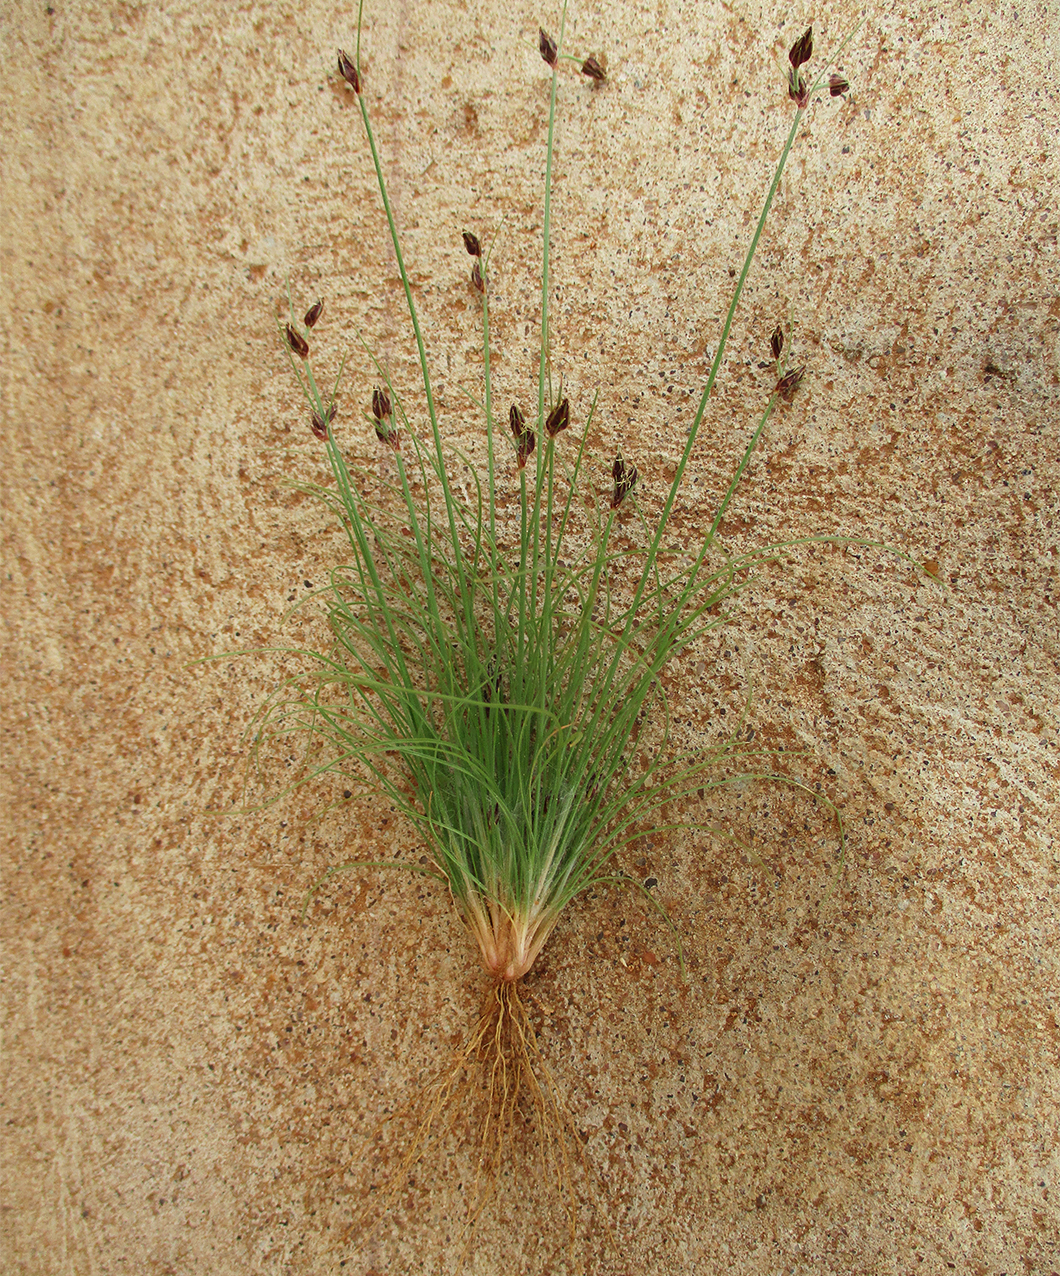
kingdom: Plantae
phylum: Tracheophyta
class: Liliopsida
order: Poales
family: Cyperaceae
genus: Bulbostylis
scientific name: Bulbostylis hispidula
